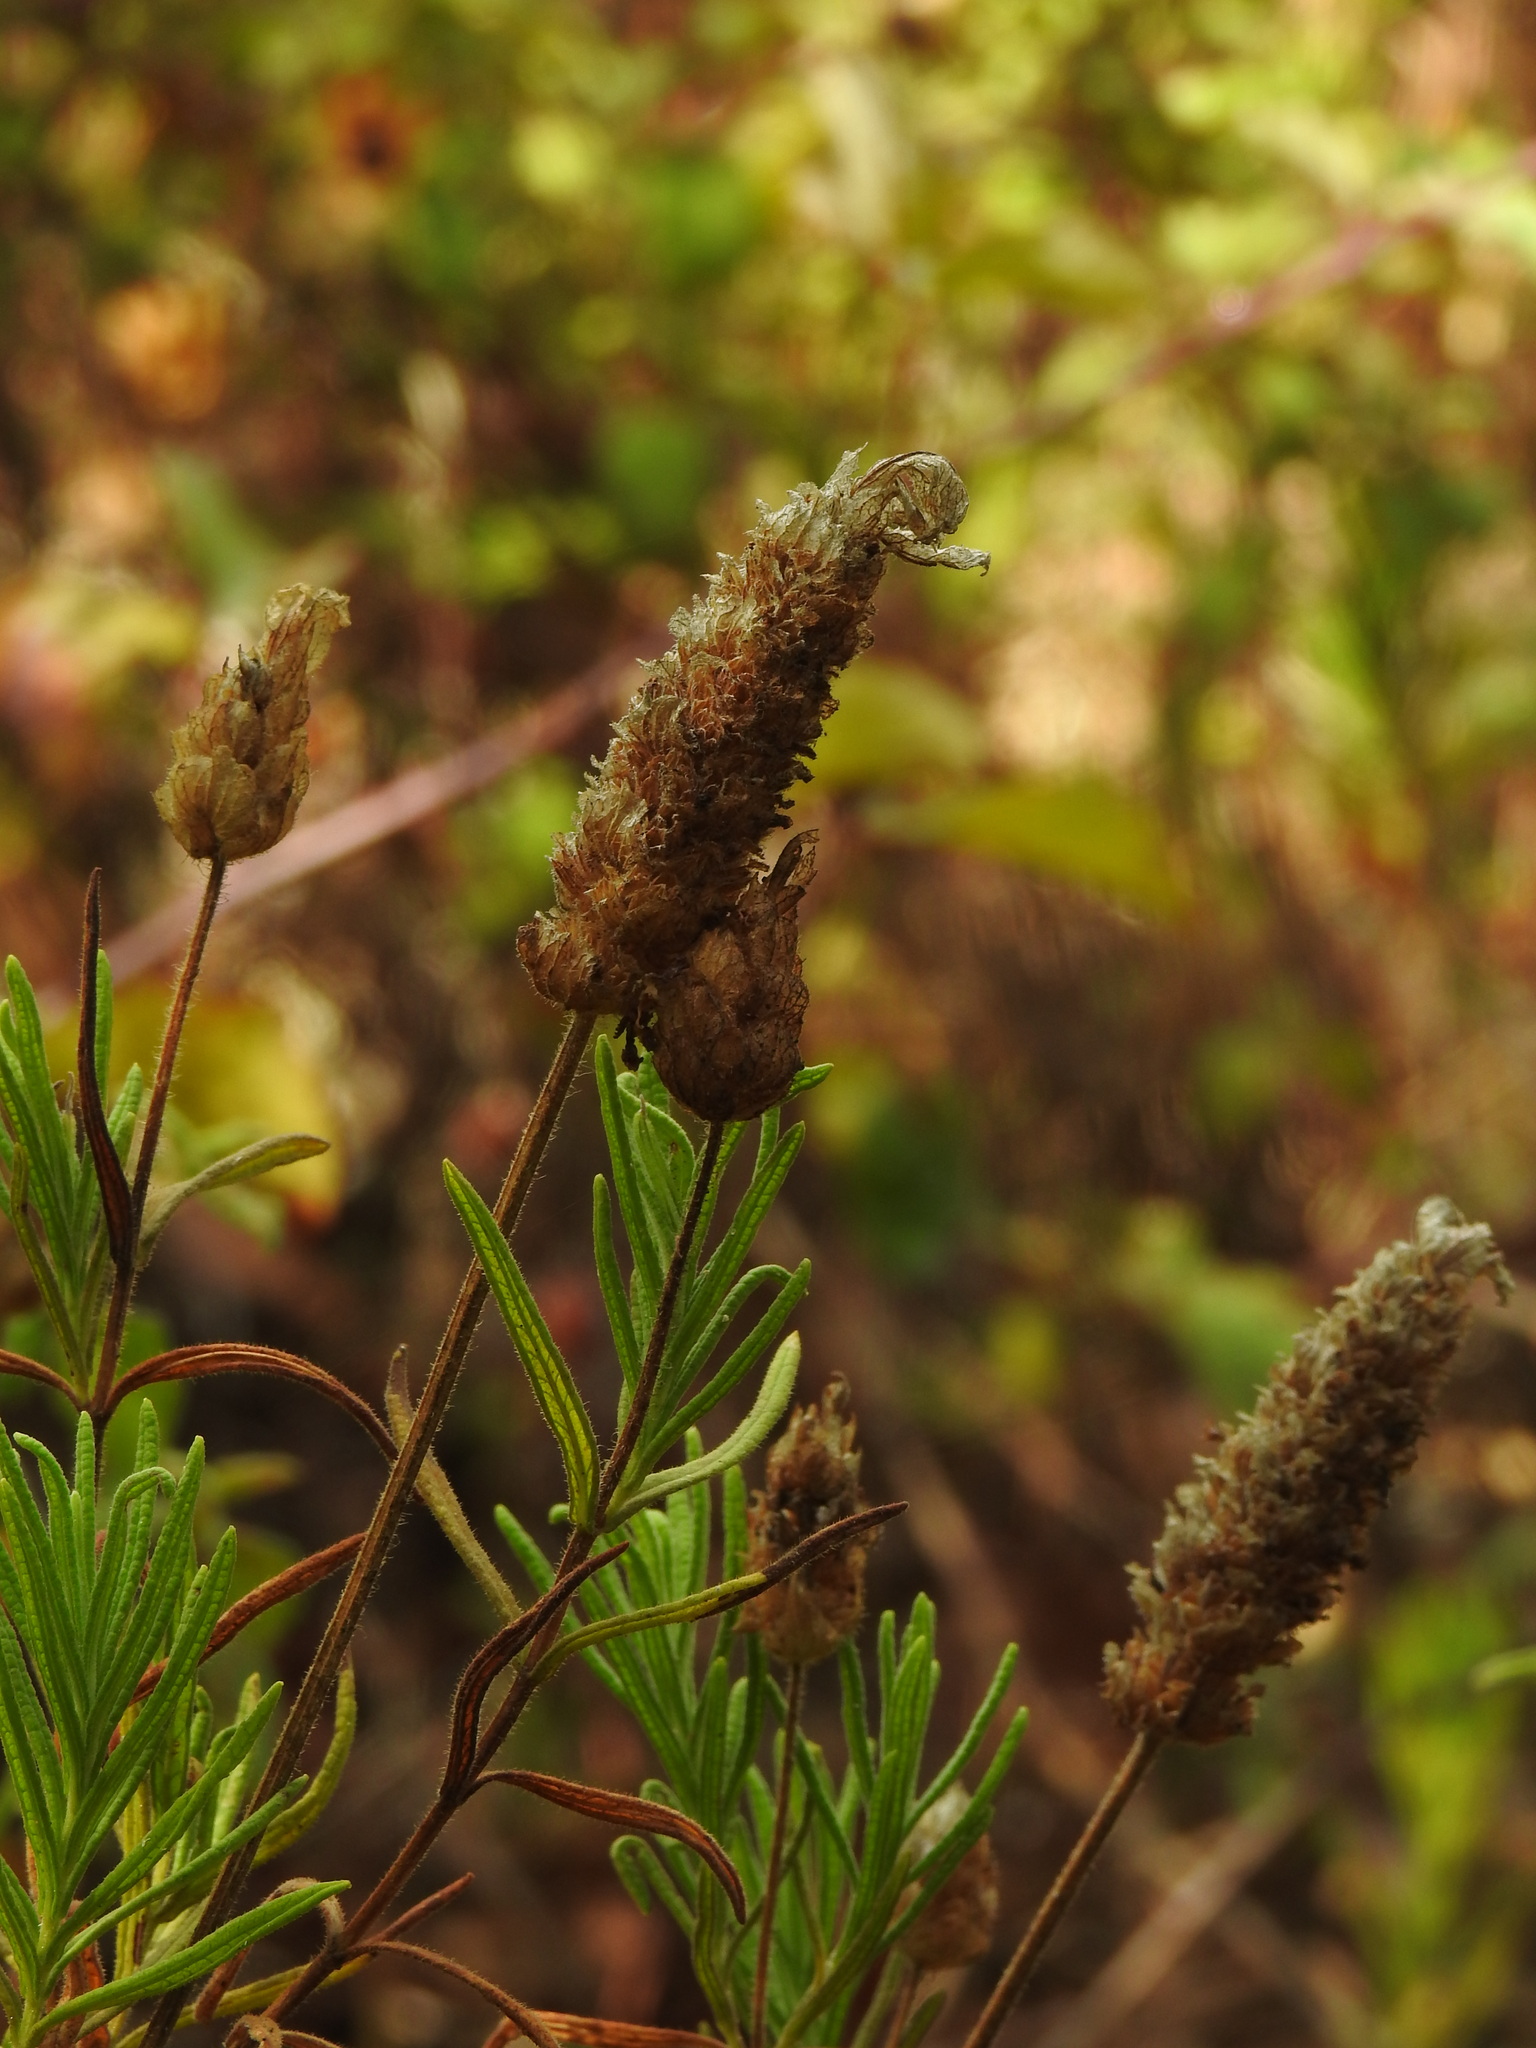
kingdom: Plantae
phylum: Tracheophyta
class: Magnoliopsida
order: Lamiales
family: Lamiaceae
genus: Lavandula
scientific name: Lavandula viridis
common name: Green spanish lavender
